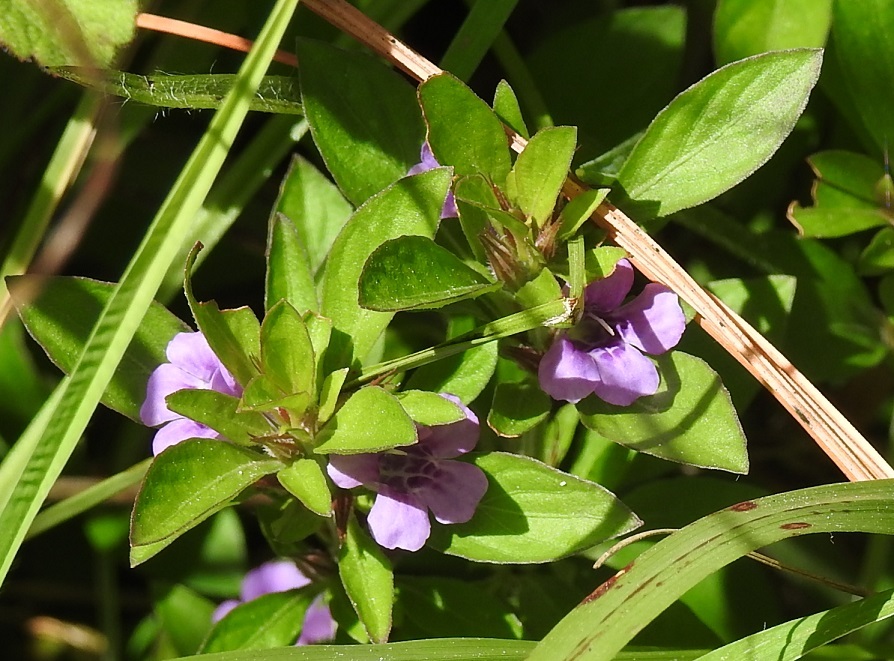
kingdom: Plantae
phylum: Tracheophyta
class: Magnoliopsida
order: Lamiales
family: Acanthaceae
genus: Dyschoriste
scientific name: Dyschoriste capitata
